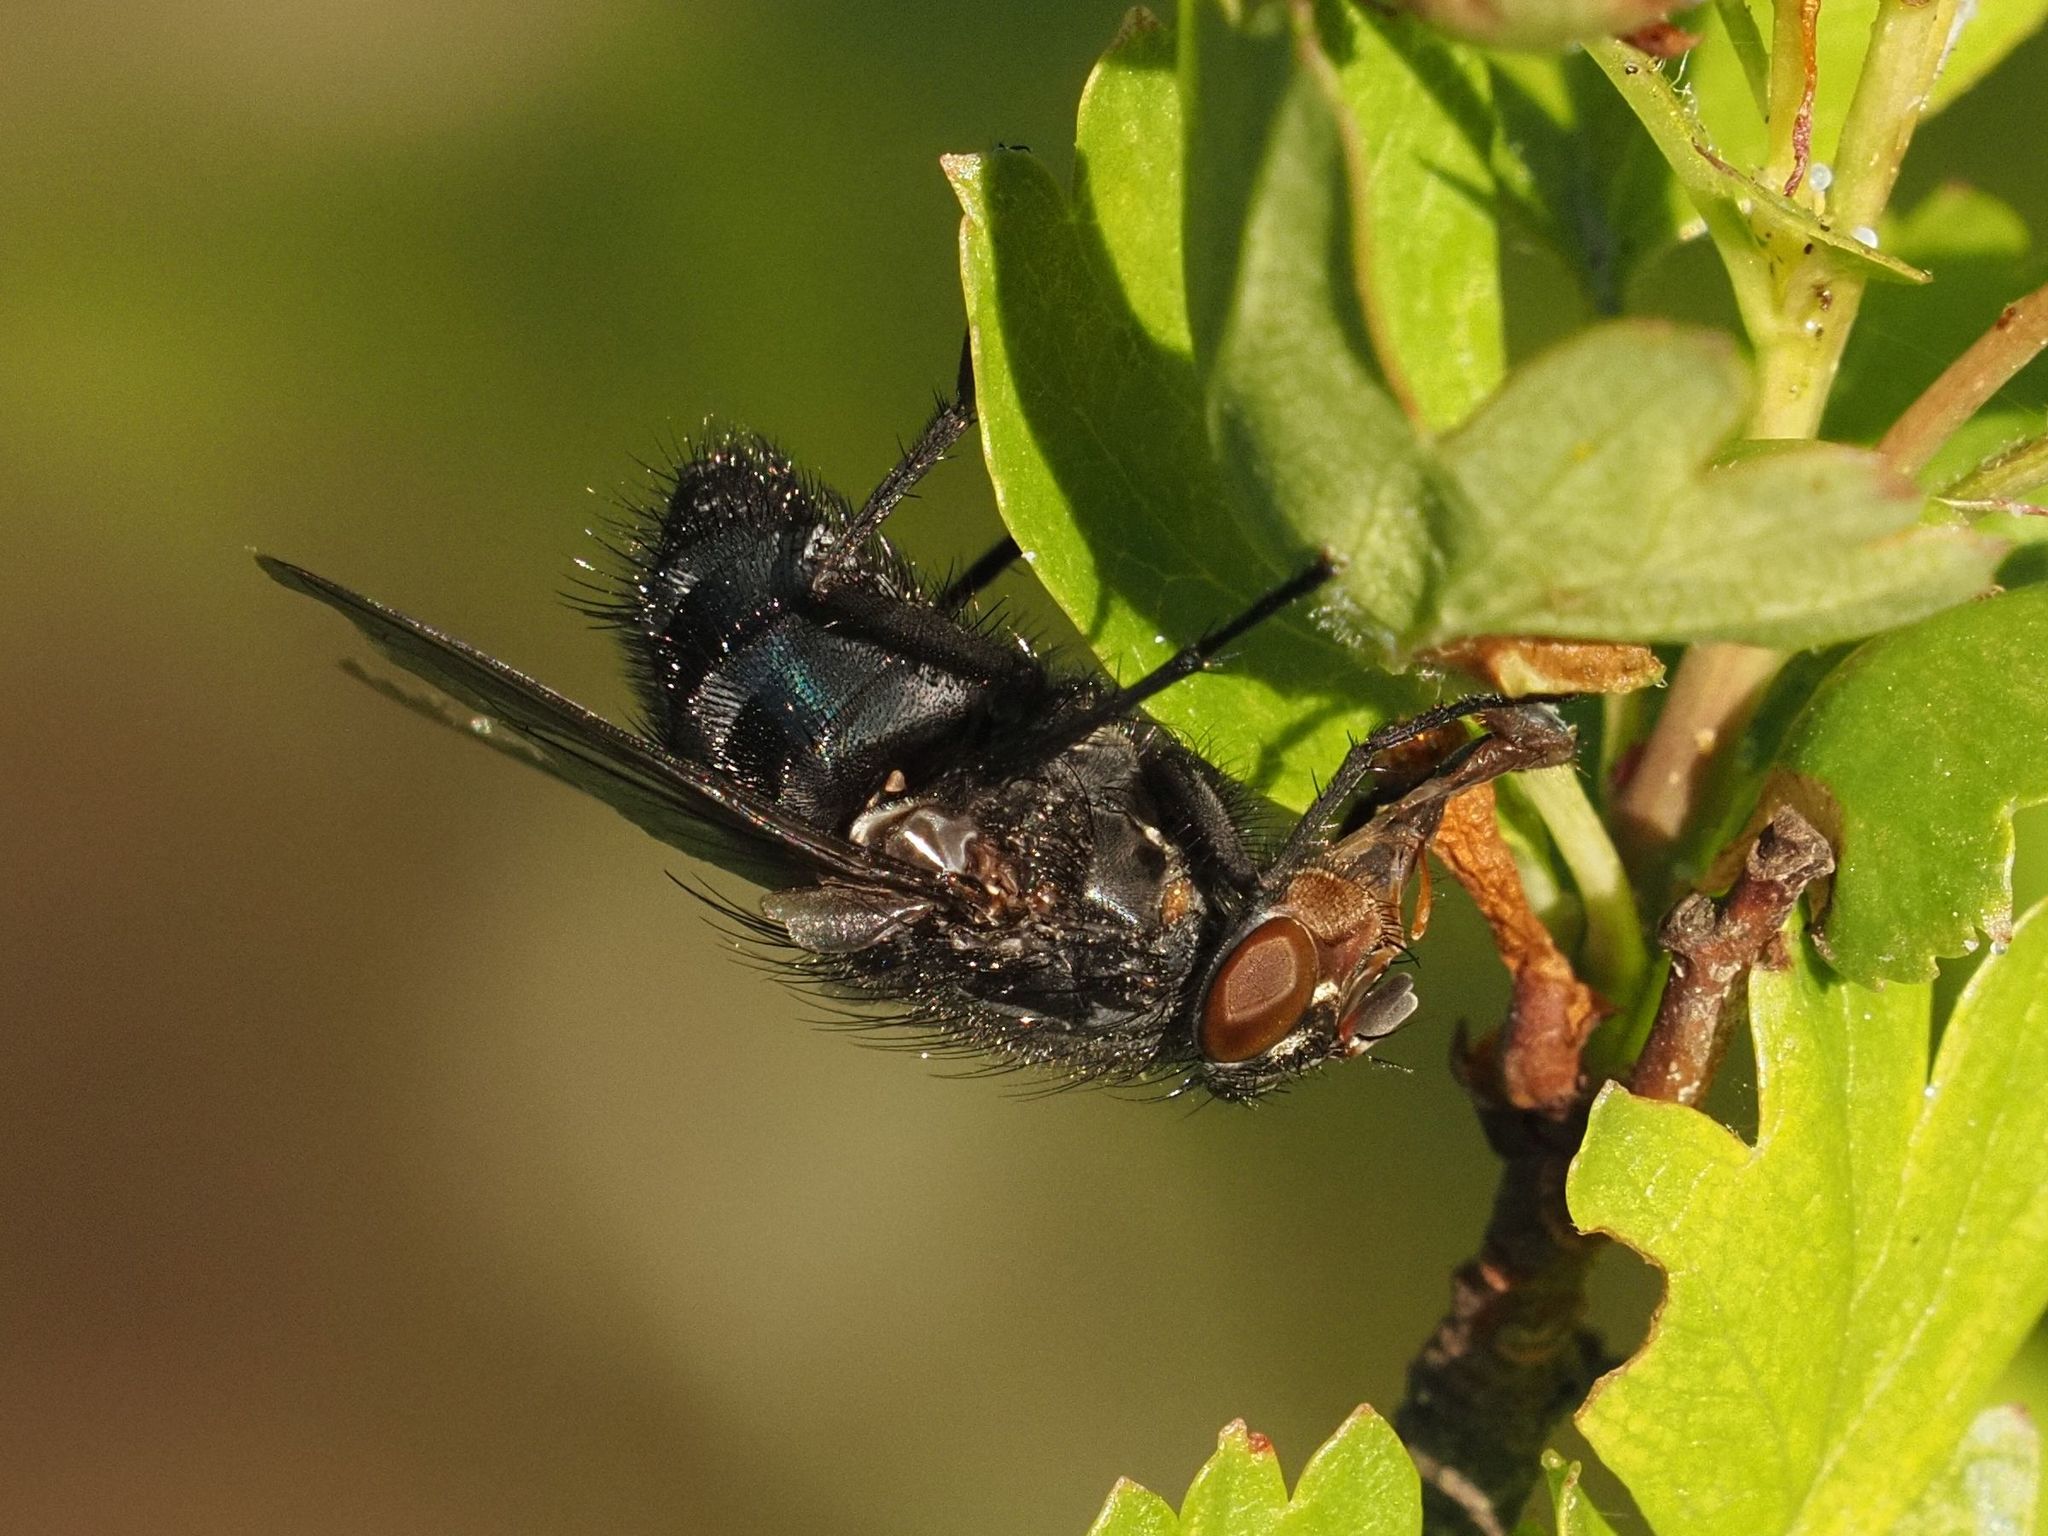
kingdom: Animalia
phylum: Arthropoda
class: Insecta
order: Diptera
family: Calliphoridae
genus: Calliphora
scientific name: Calliphora vicina
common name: Common blow flie
